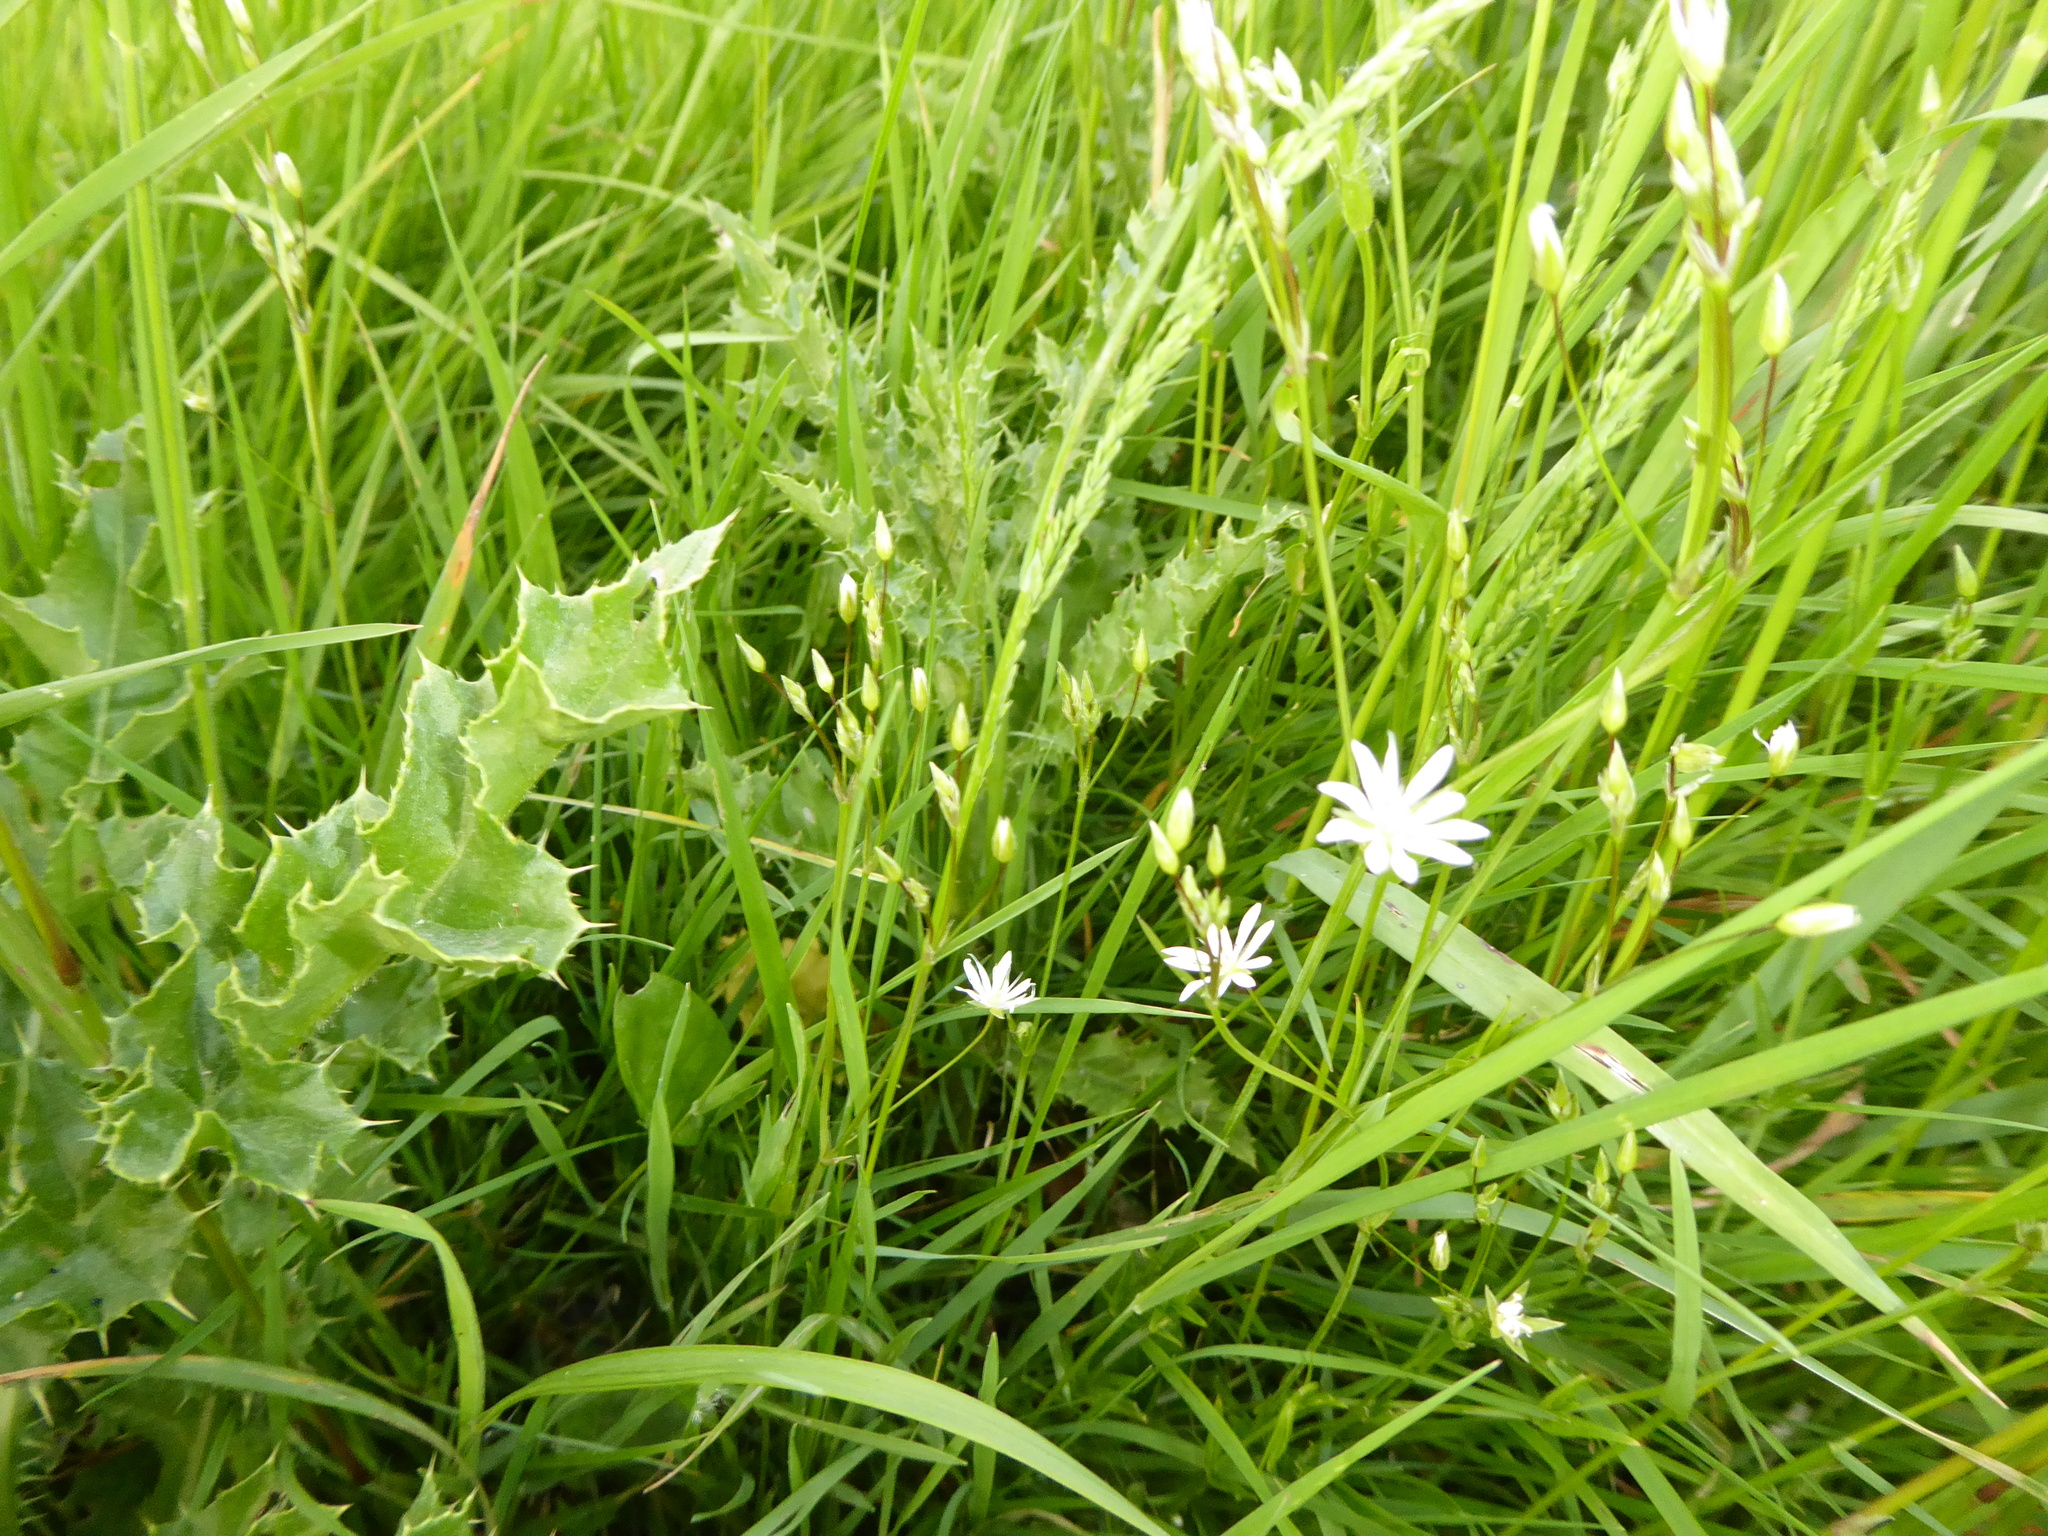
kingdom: Plantae
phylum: Tracheophyta
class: Magnoliopsida
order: Caryophyllales
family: Caryophyllaceae
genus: Stellaria
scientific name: Stellaria graminea
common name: Grass-like starwort
